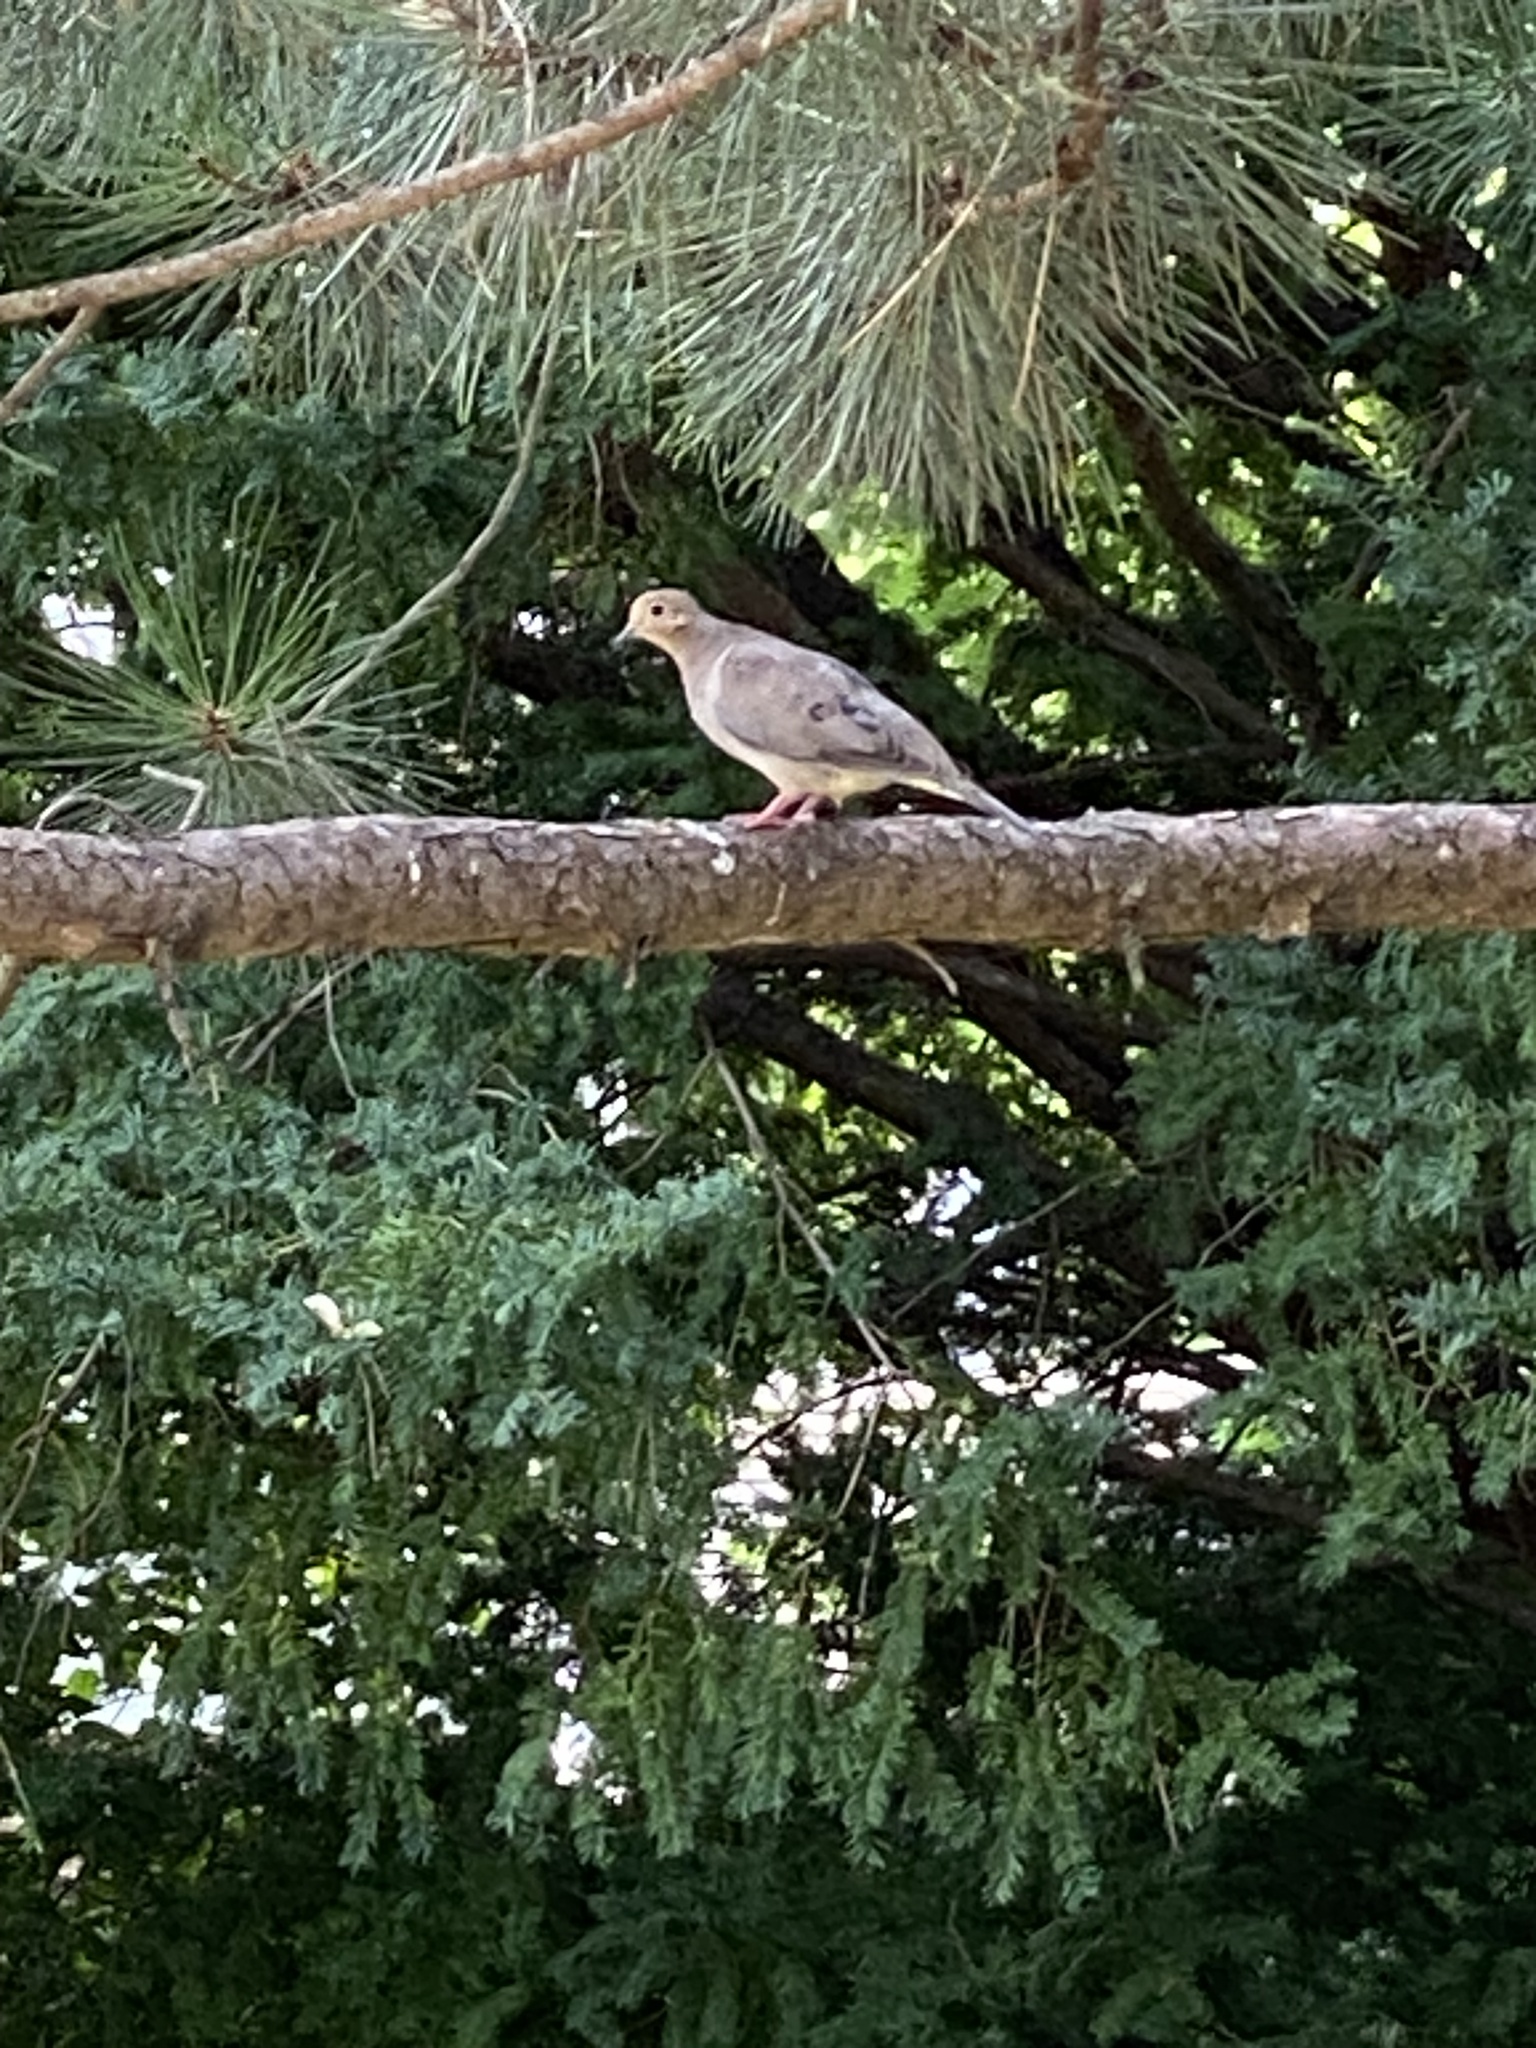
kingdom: Animalia
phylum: Chordata
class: Aves
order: Columbiformes
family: Columbidae
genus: Zenaida
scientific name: Zenaida macroura
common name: Mourning dove
